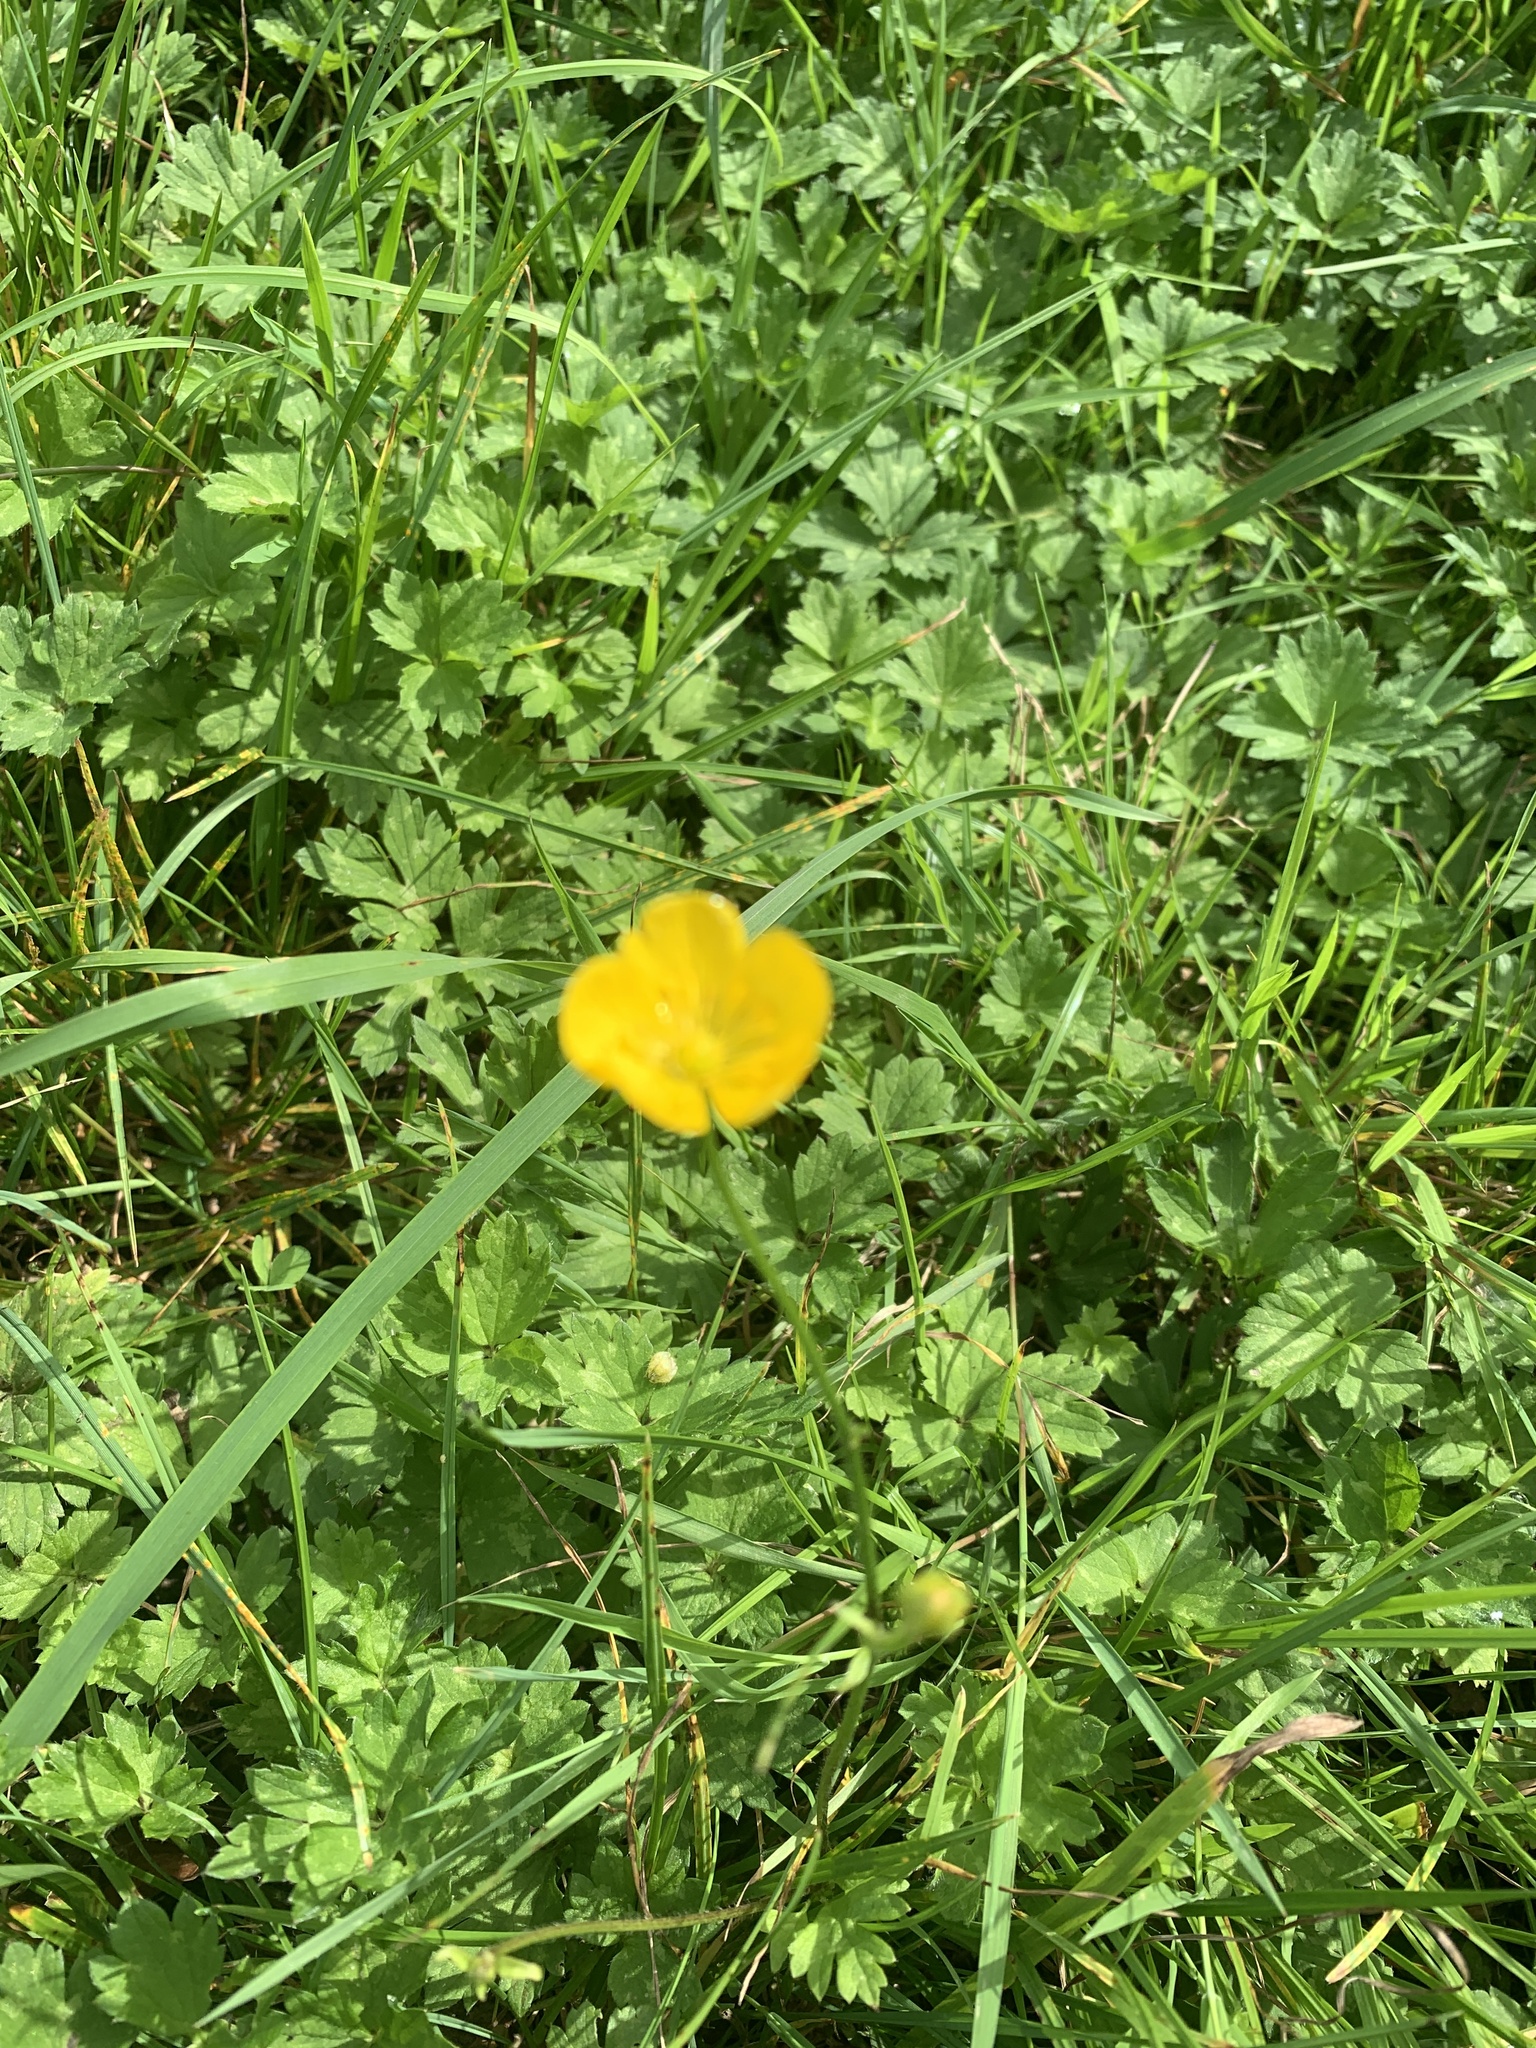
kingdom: Plantae
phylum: Tracheophyta
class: Magnoliopsida
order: Ranunculales
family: Ranunculaceae
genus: Ranunculus
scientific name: Ranunculus acris
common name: Meadow buttercup
